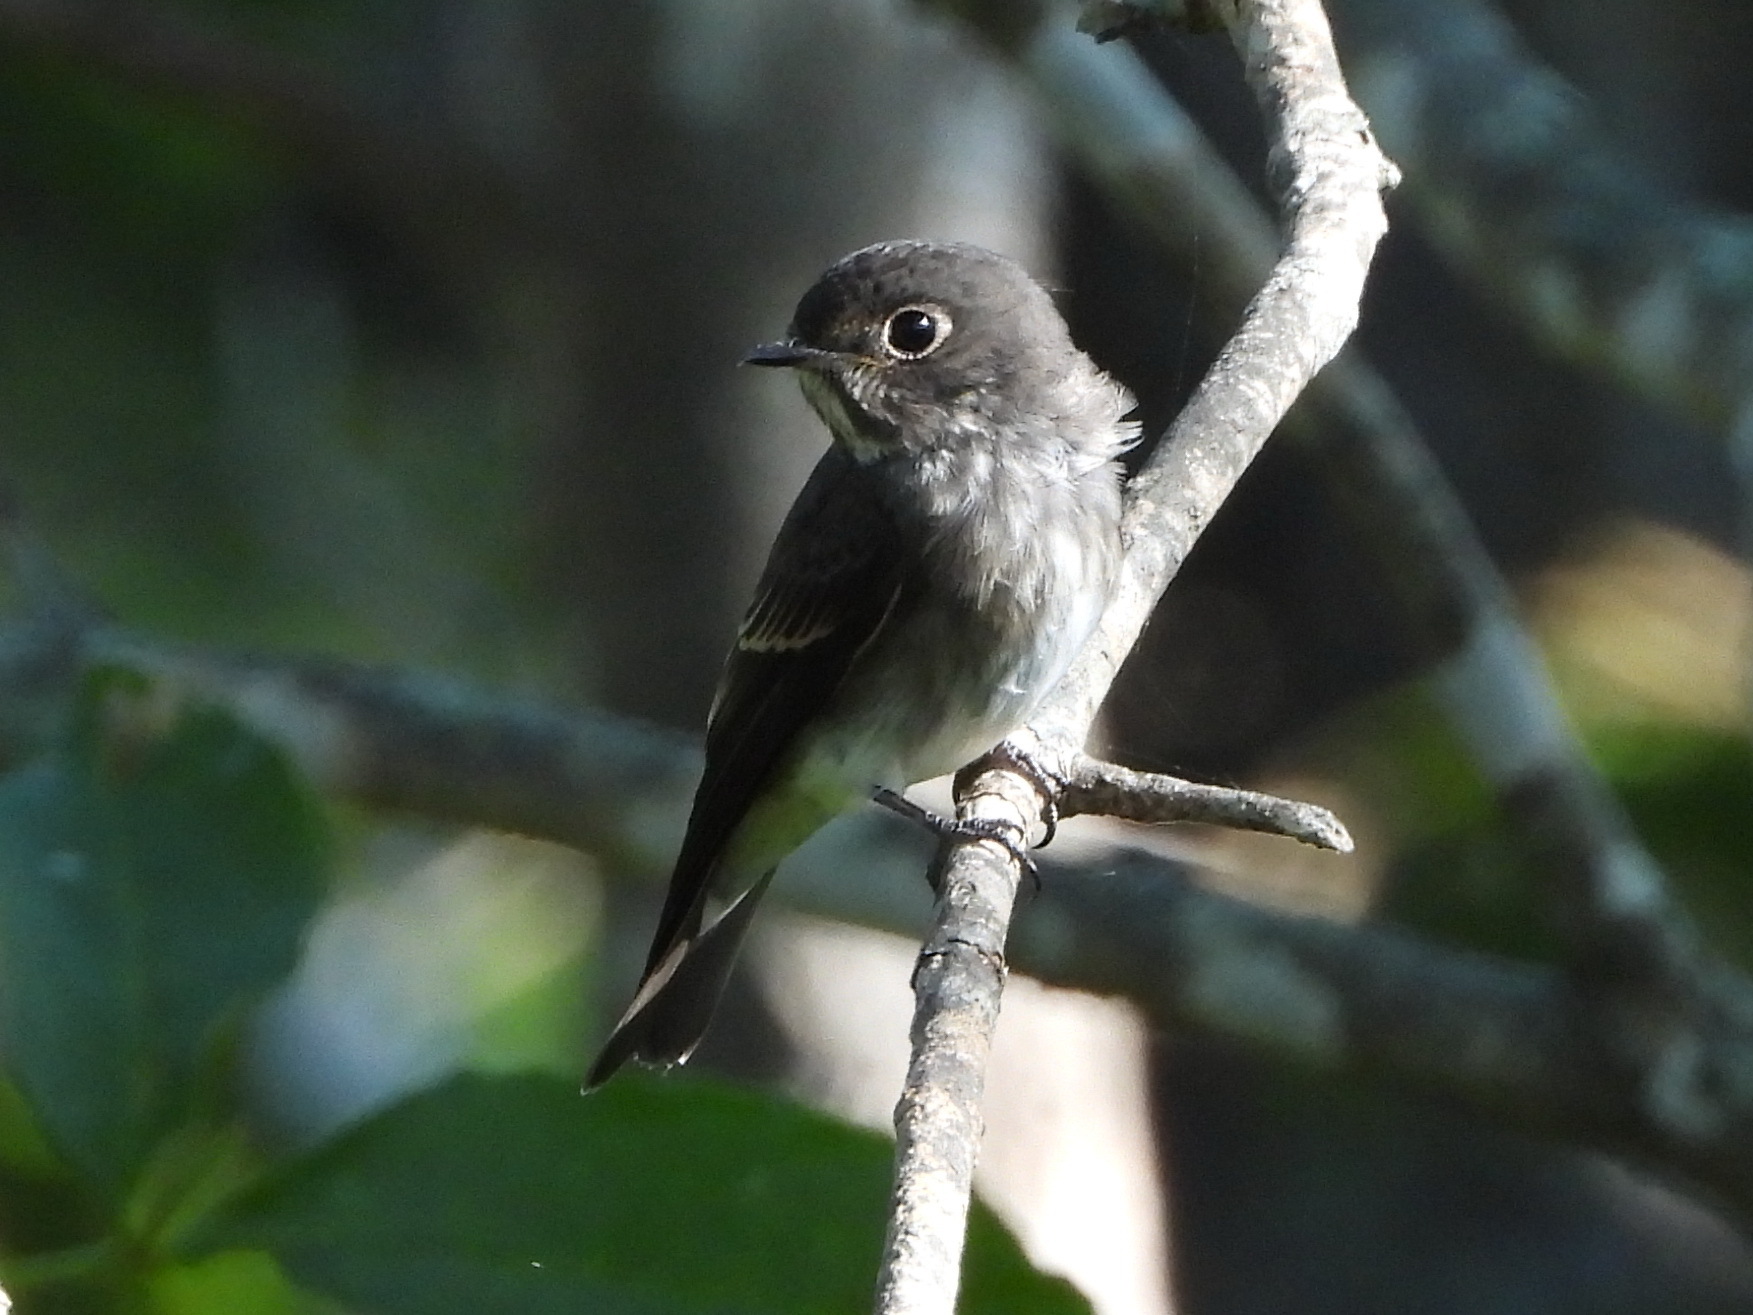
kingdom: Animalia
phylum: Chordata
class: Aves
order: Passeriformes
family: Muscicapidae
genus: Muscicapa
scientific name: Muscicapa sibirica
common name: Dark-sided flycatcher
